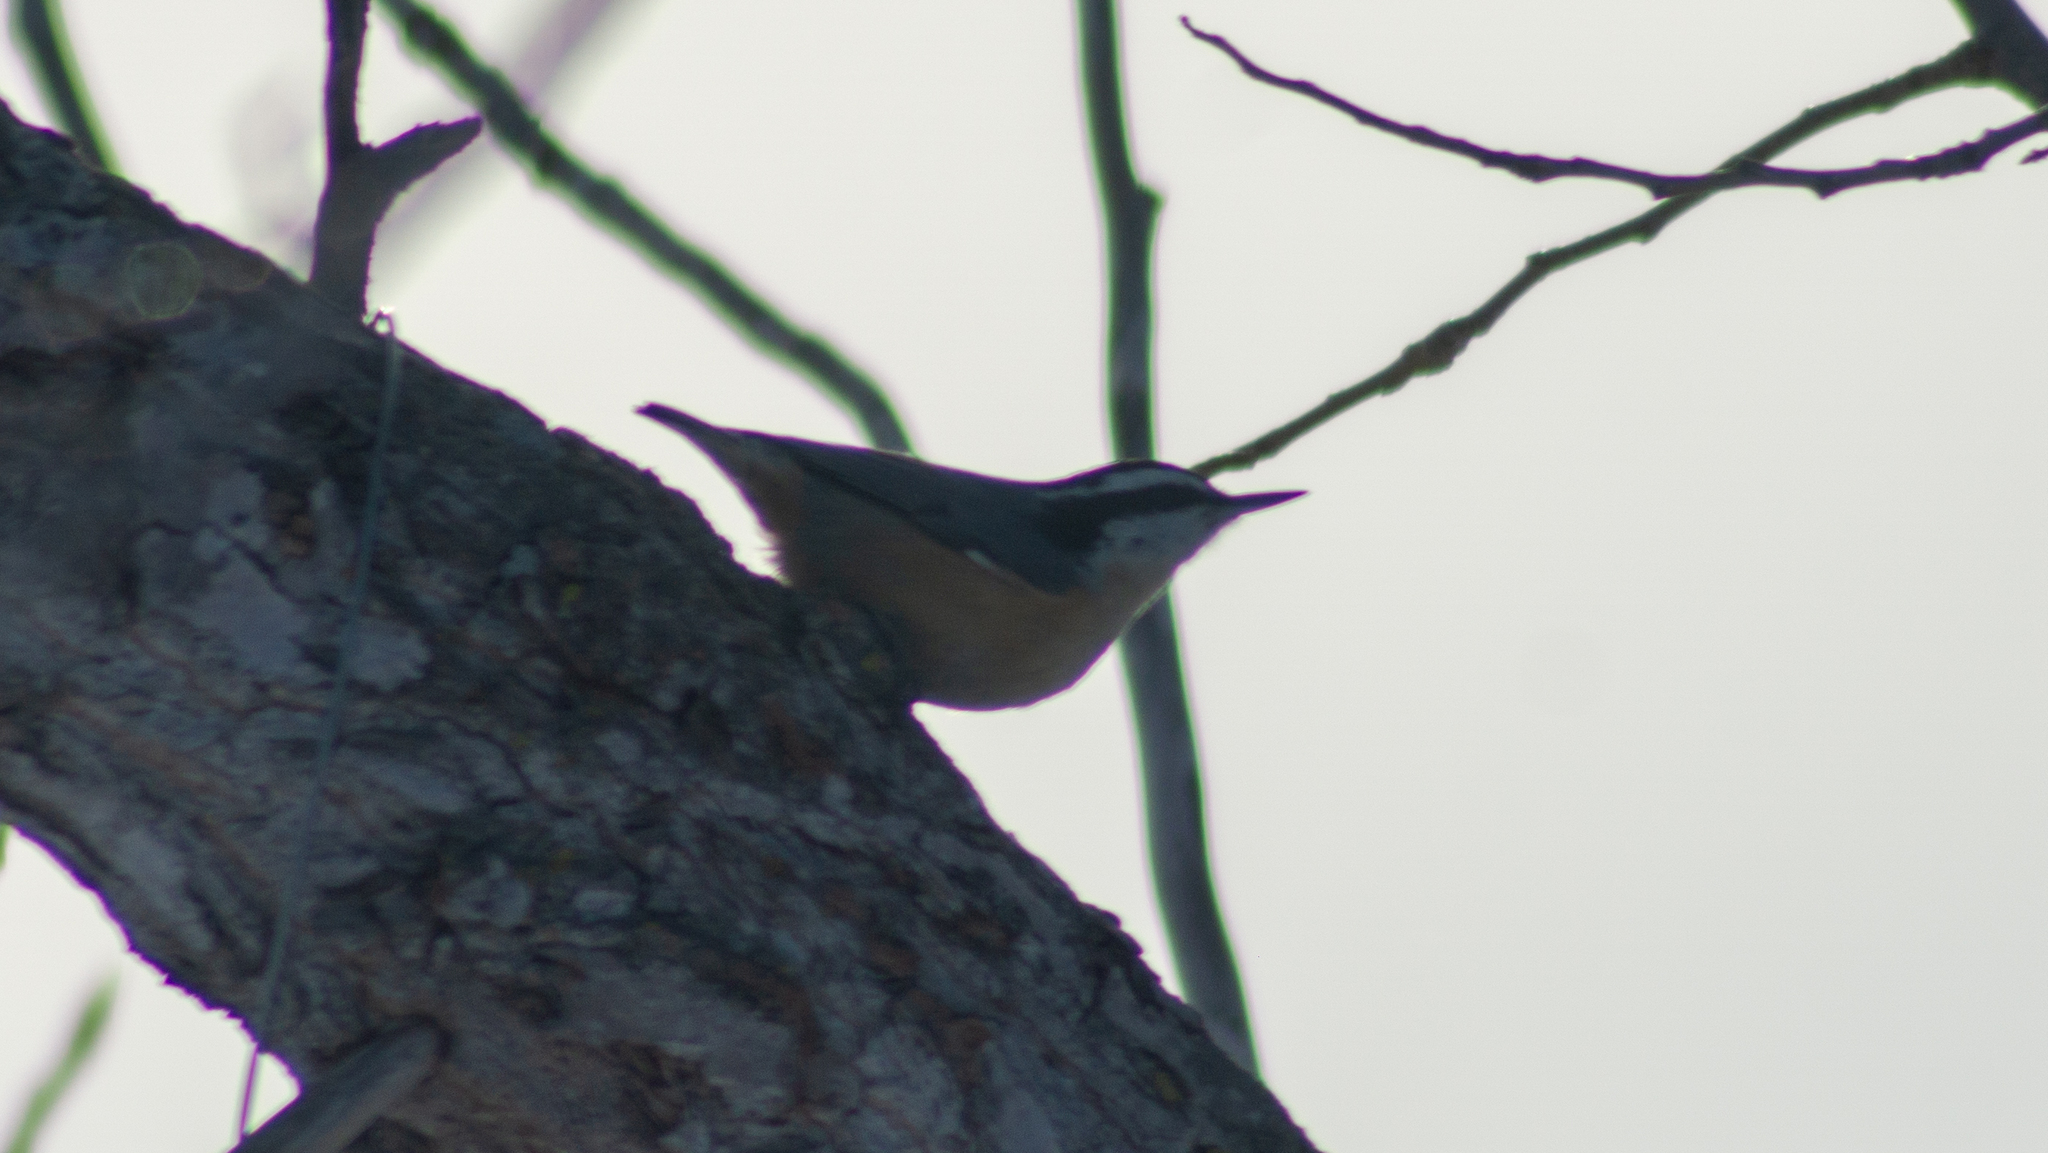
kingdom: Animalia
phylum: Chordata
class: Aves
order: Passeriformes
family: Sittidae
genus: Sitta
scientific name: Sitta canadensis
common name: Red-breasted nuthatch
